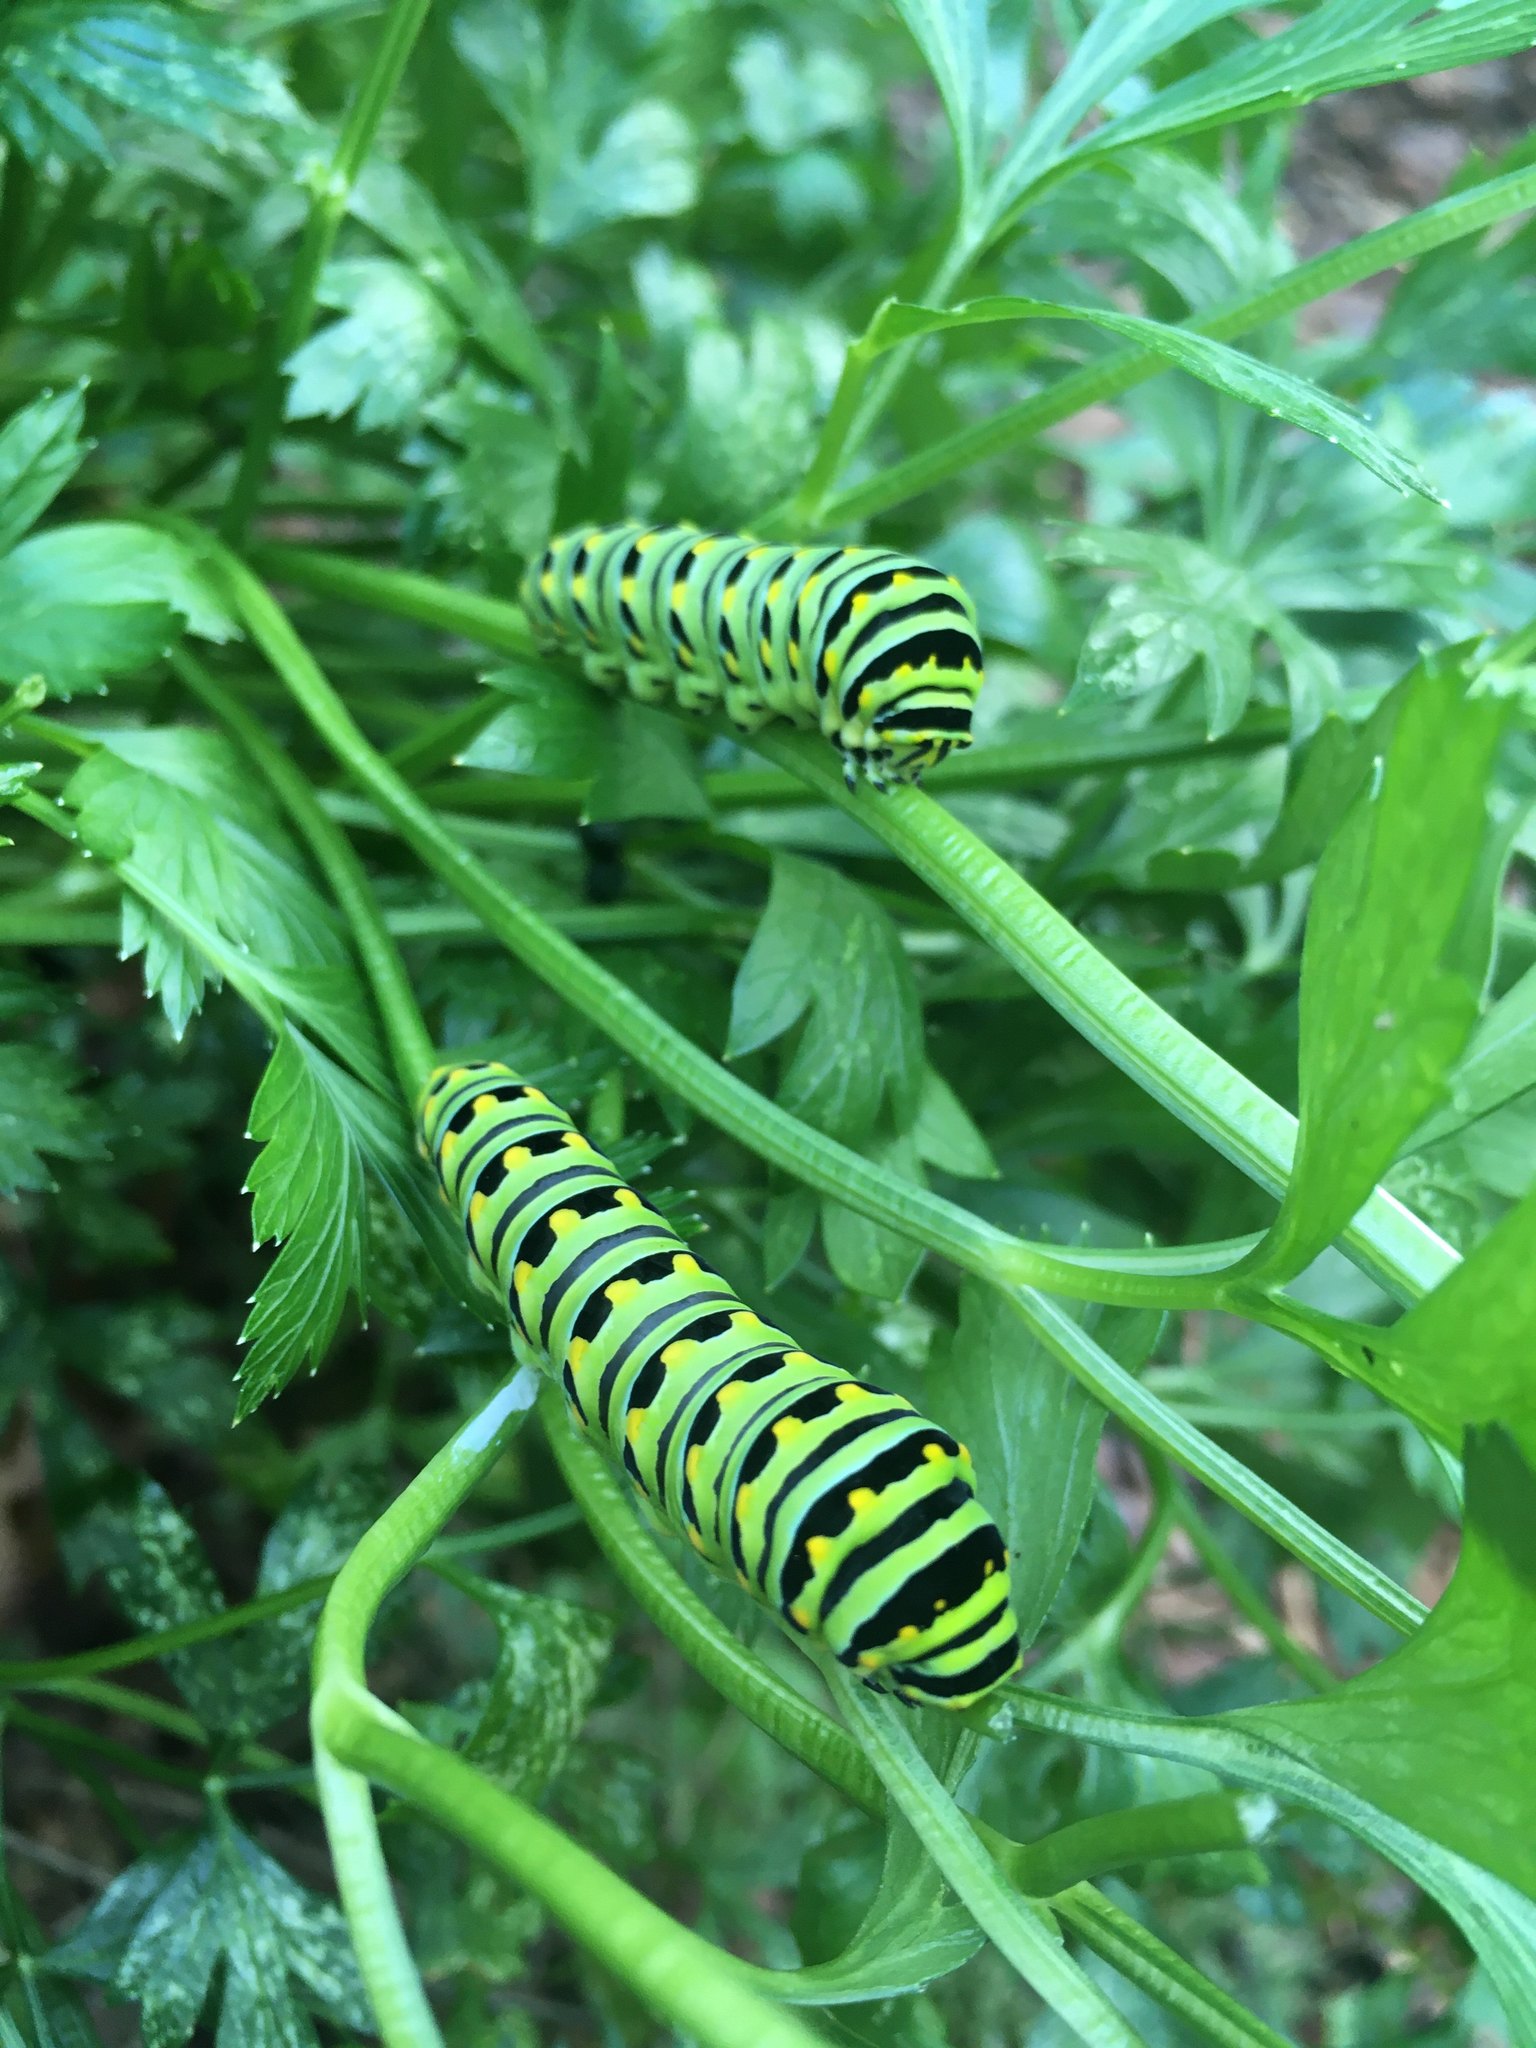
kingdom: Animalia
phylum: Arthropoda
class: Insecta
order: Lepidoptera
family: Papilionidae
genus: Papilio
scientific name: Papilio polyxenes
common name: Black swallowtail
